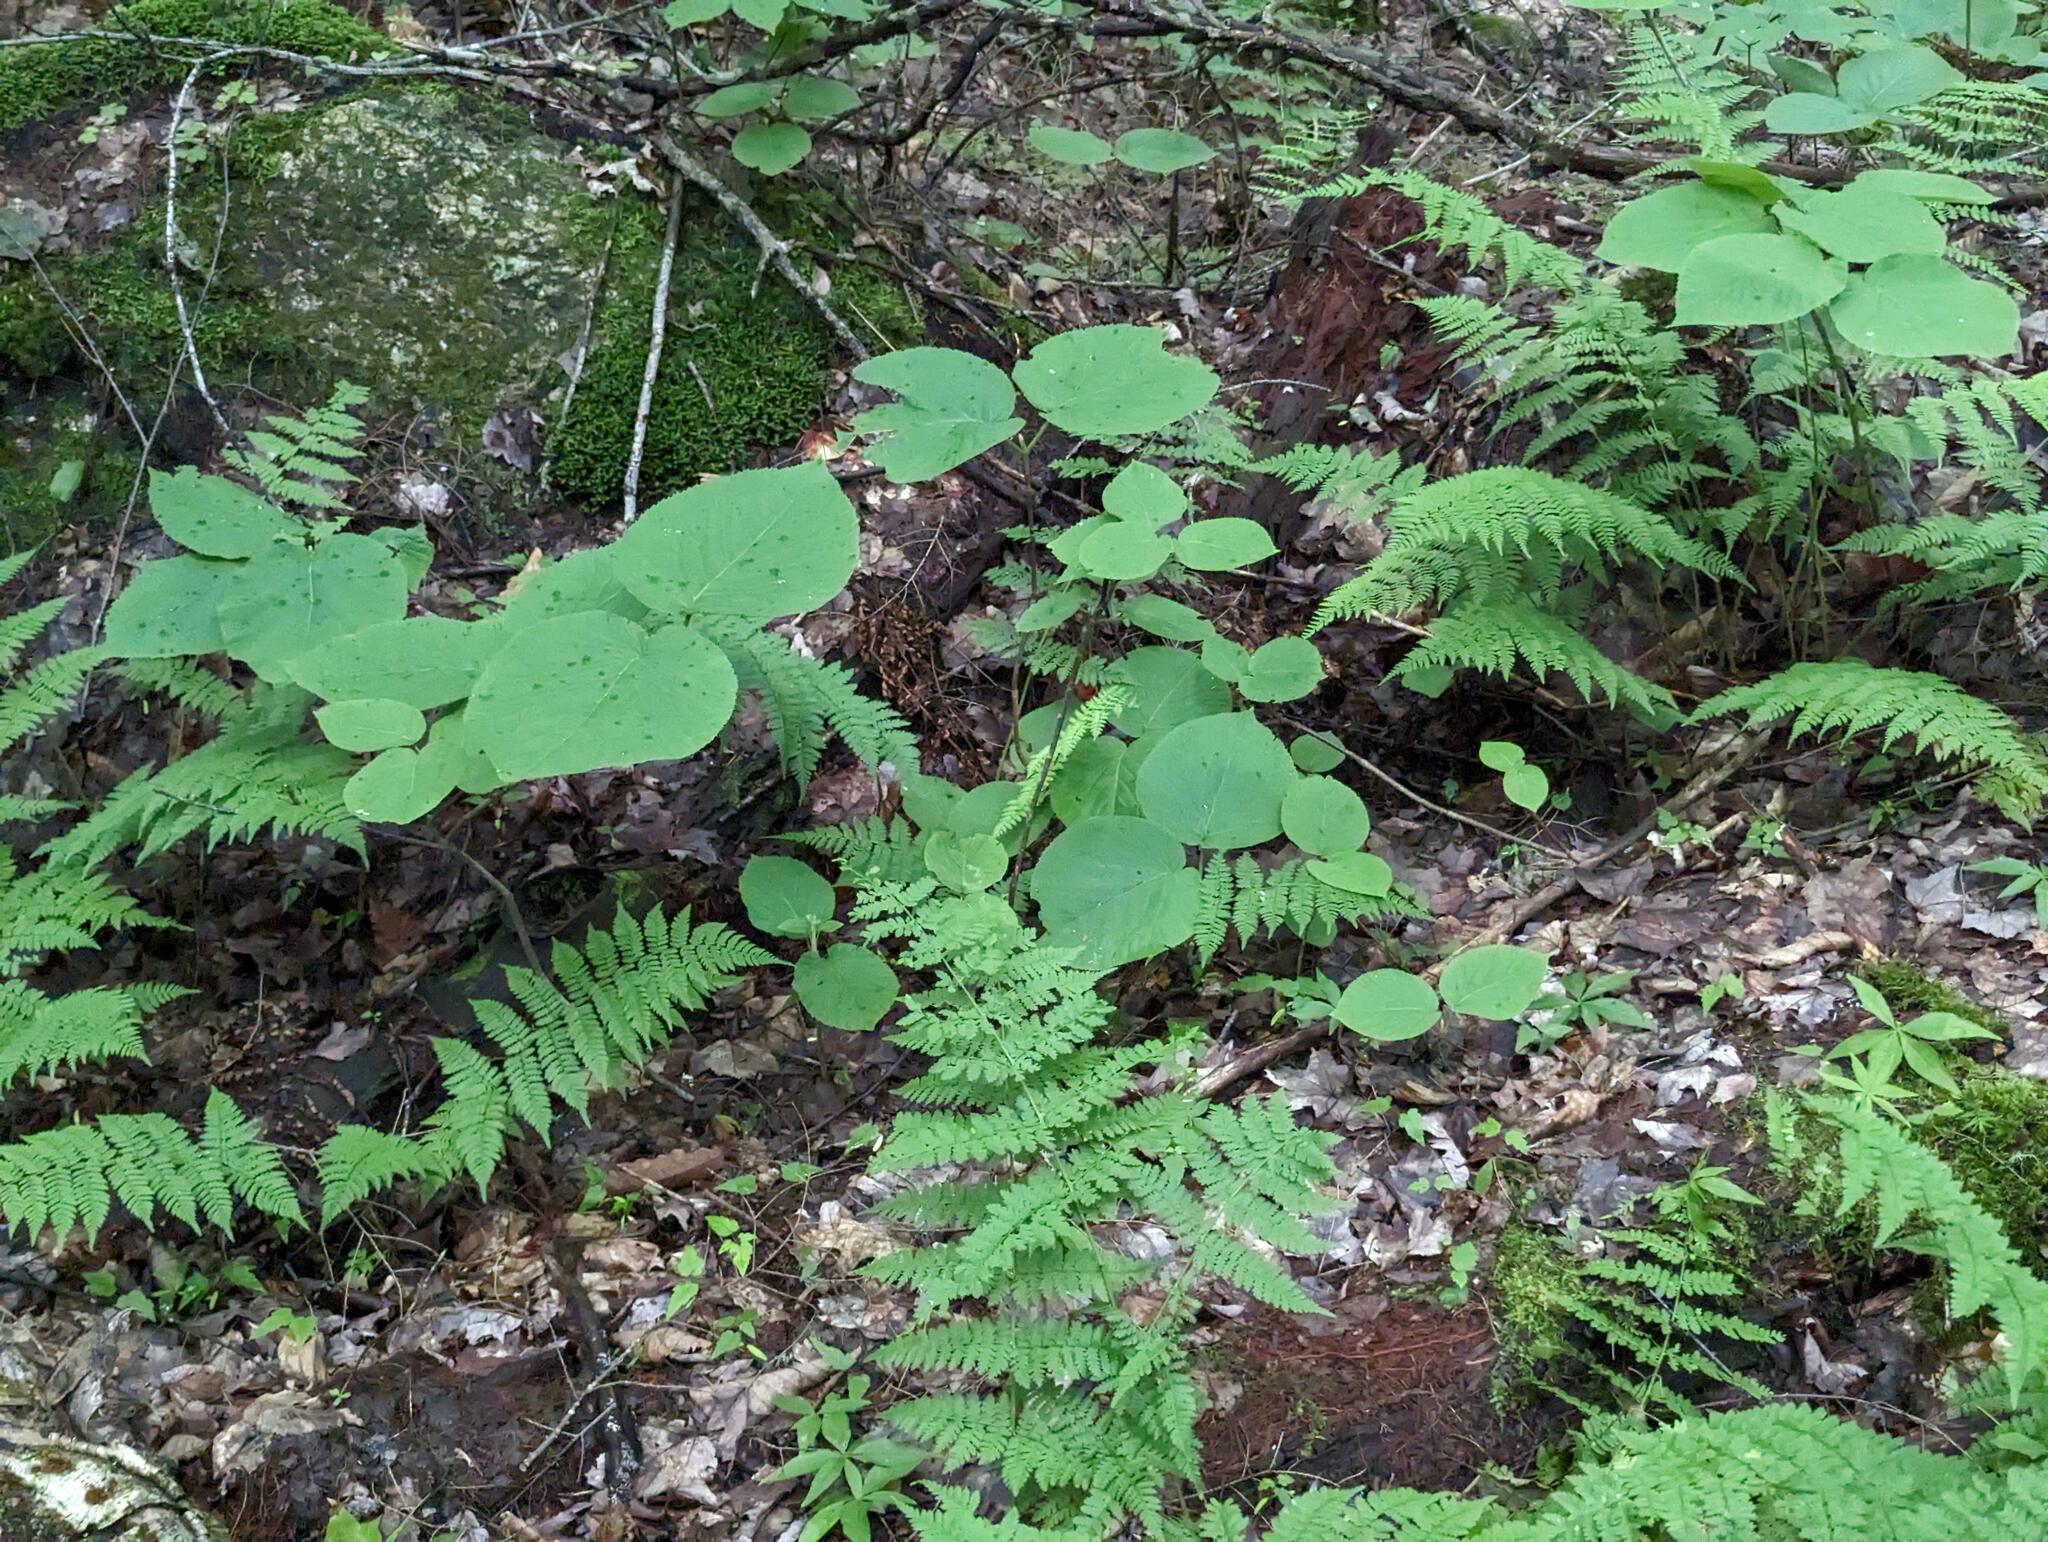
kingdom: Plantae
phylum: Tracheophyta
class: Magnoliopsida
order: Dipsacales
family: Viburnaceae
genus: Viburnum
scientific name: Viburnum lantanoides
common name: Hobblebush
